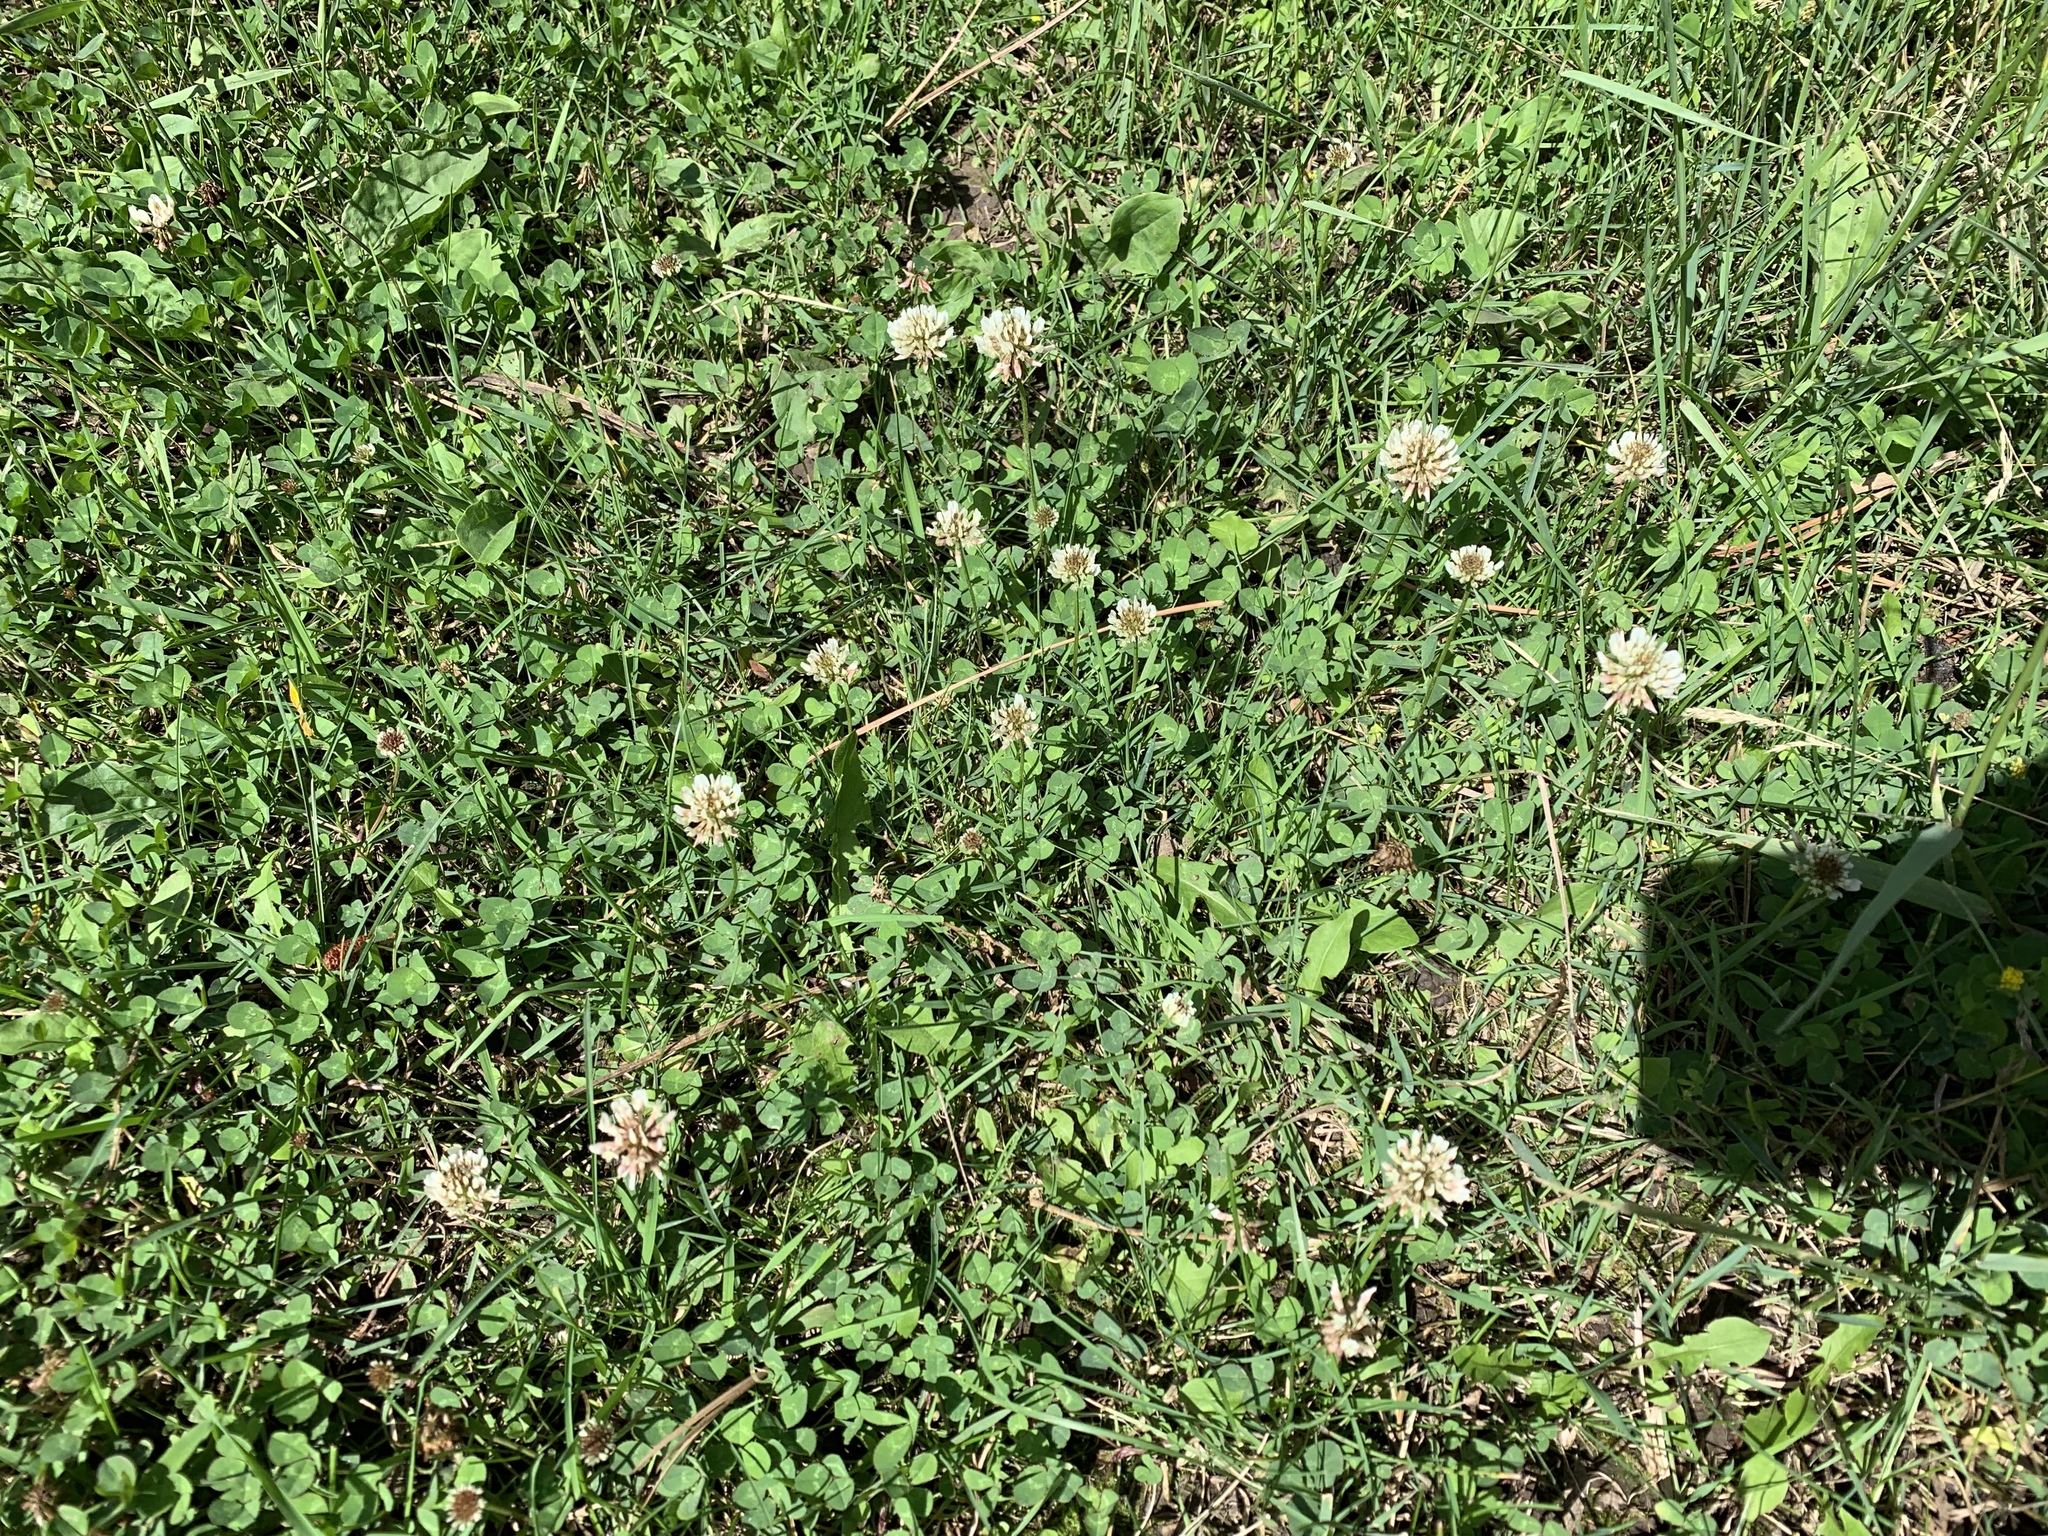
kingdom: Plantae
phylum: Tracheophyta
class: Magnoliopsida
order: Fabales
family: Fabaceae
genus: Trifolium
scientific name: Trifolium repens
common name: White clover
